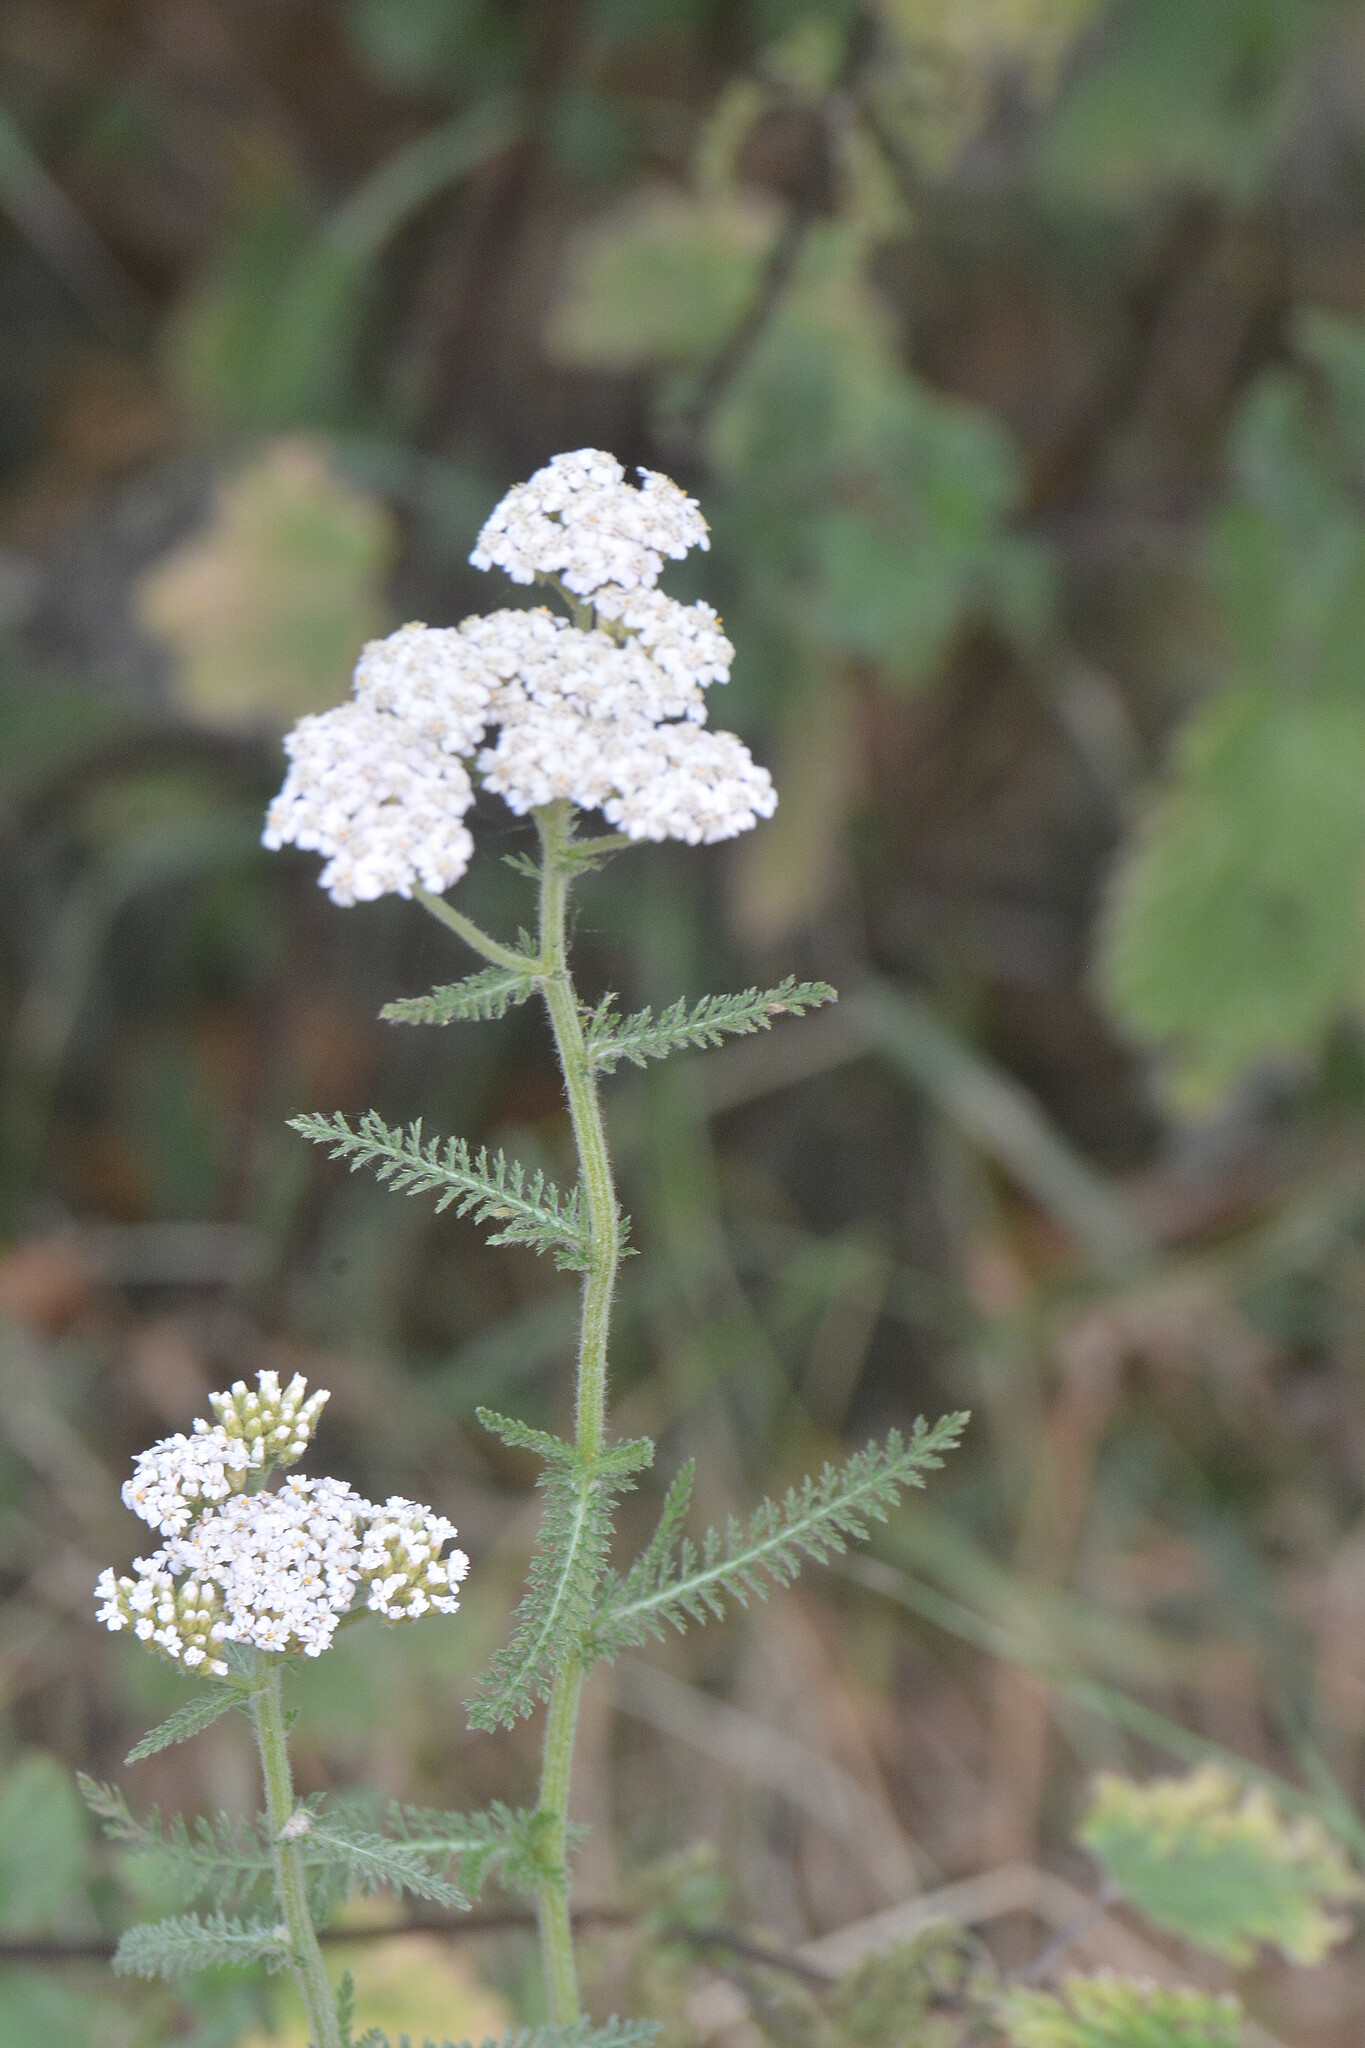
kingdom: Plantae
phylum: Tracheophyta
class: Magnoliopsida
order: Asterales
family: Asteraceae
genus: Achillea
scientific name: Achillea millefolium
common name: Yarrow
